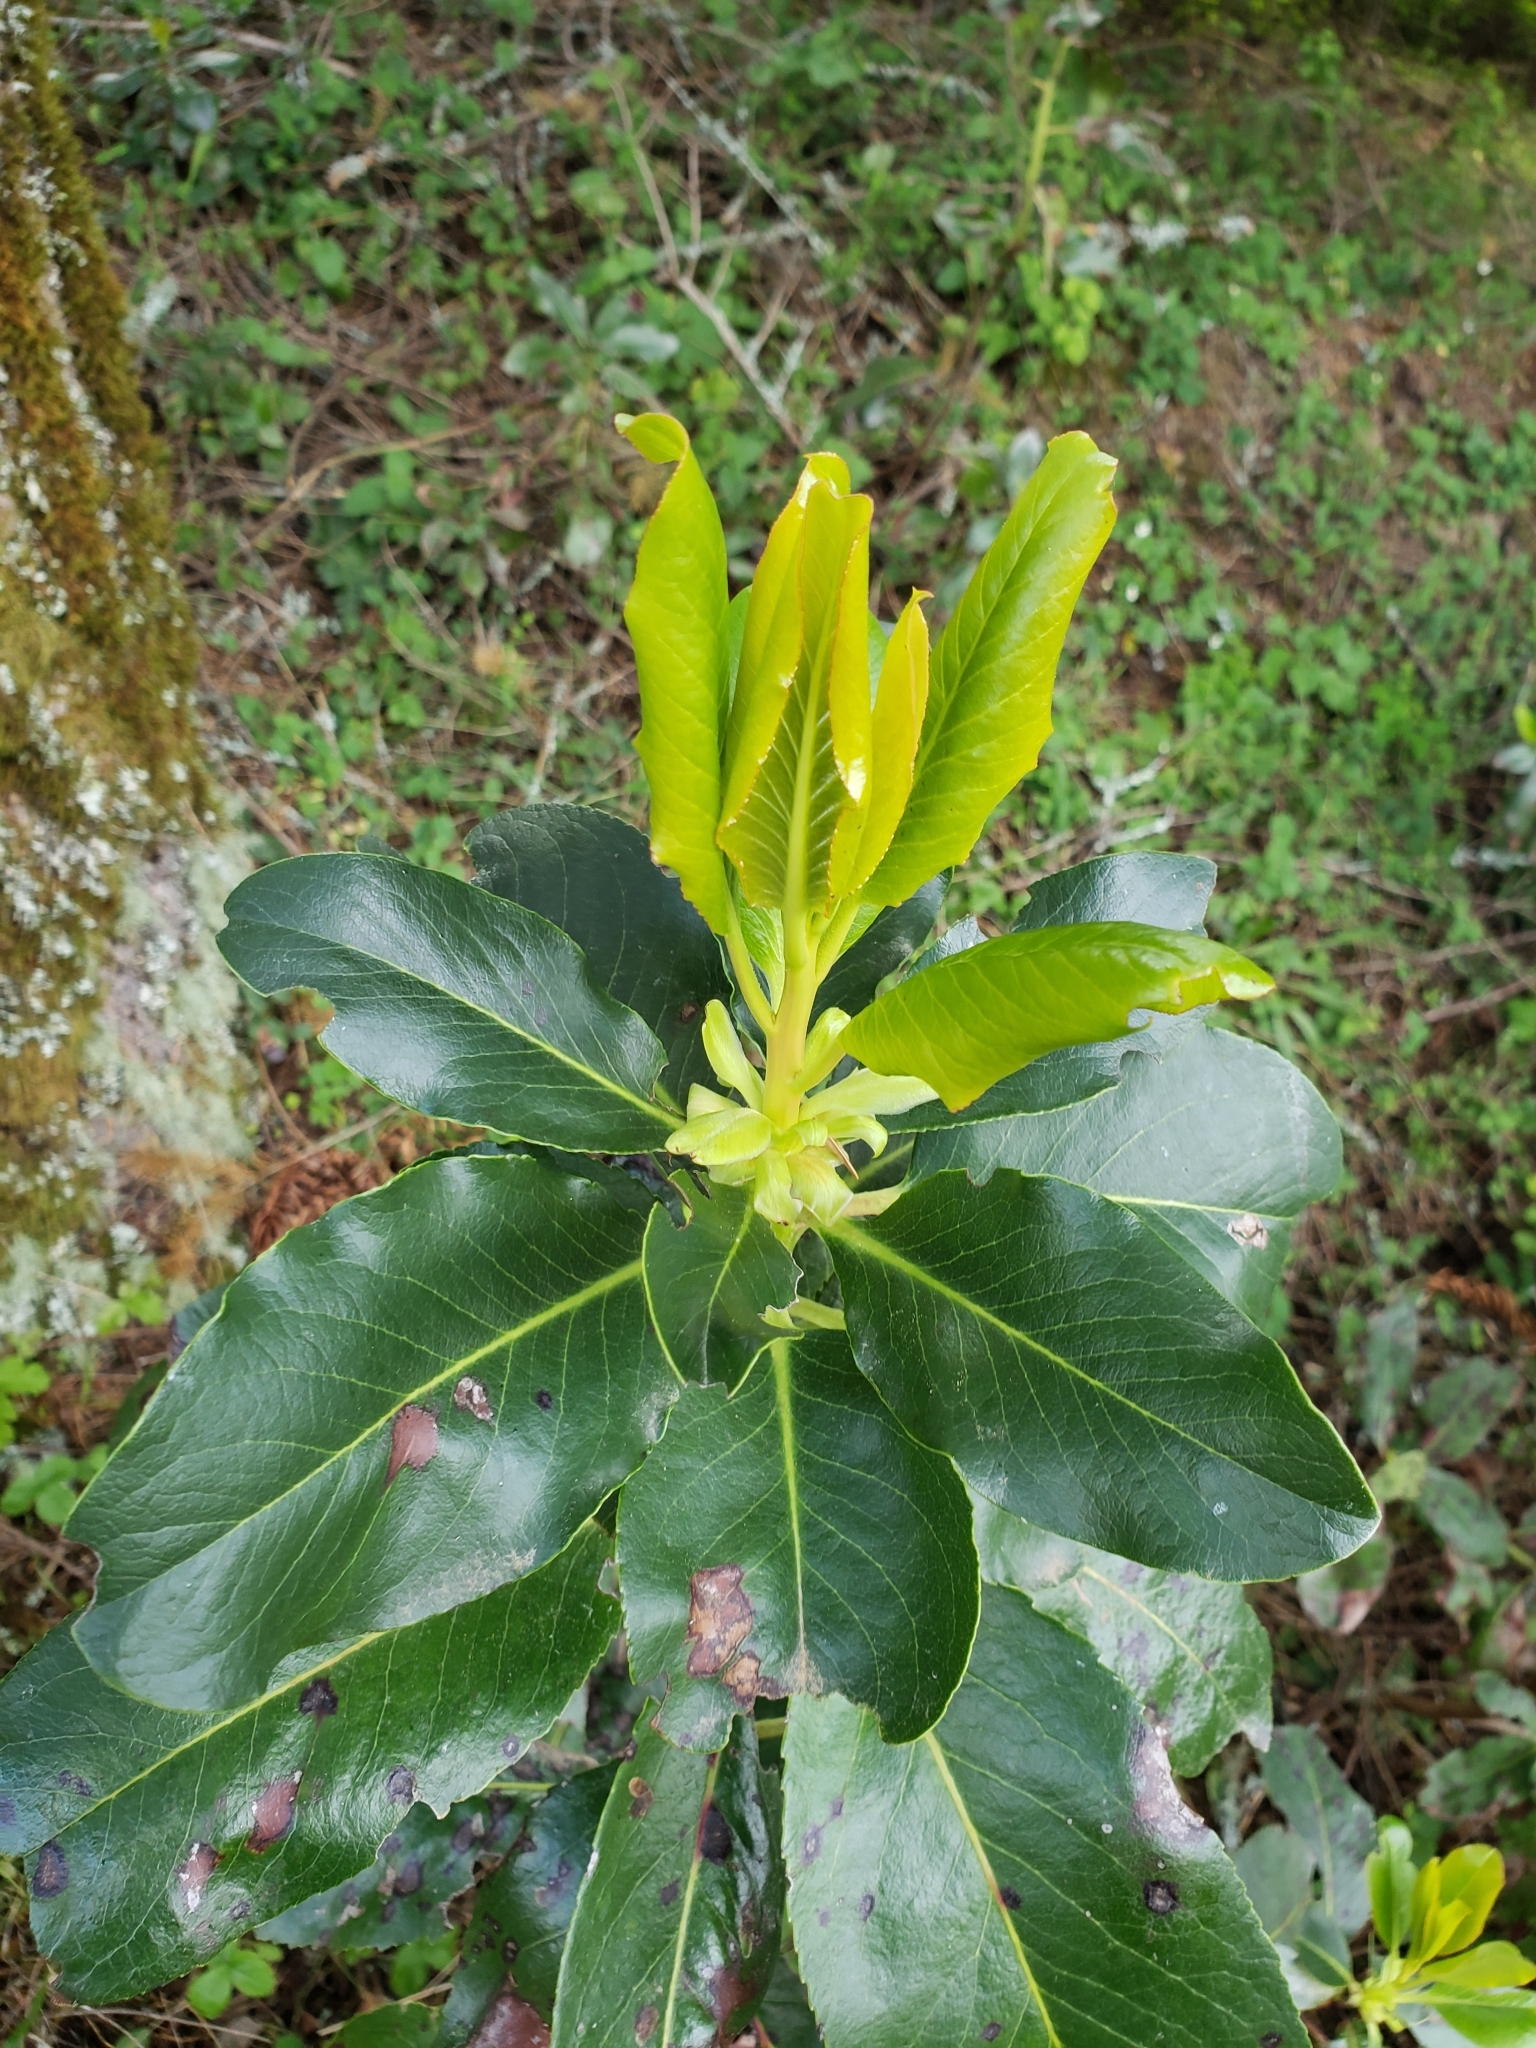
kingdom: Plantae
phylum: Tracheophyta
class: Magnoliopsida
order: Ericales
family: Ericaceae
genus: Arbutus
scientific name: Arbutus menziesii
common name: Pacific madrone
